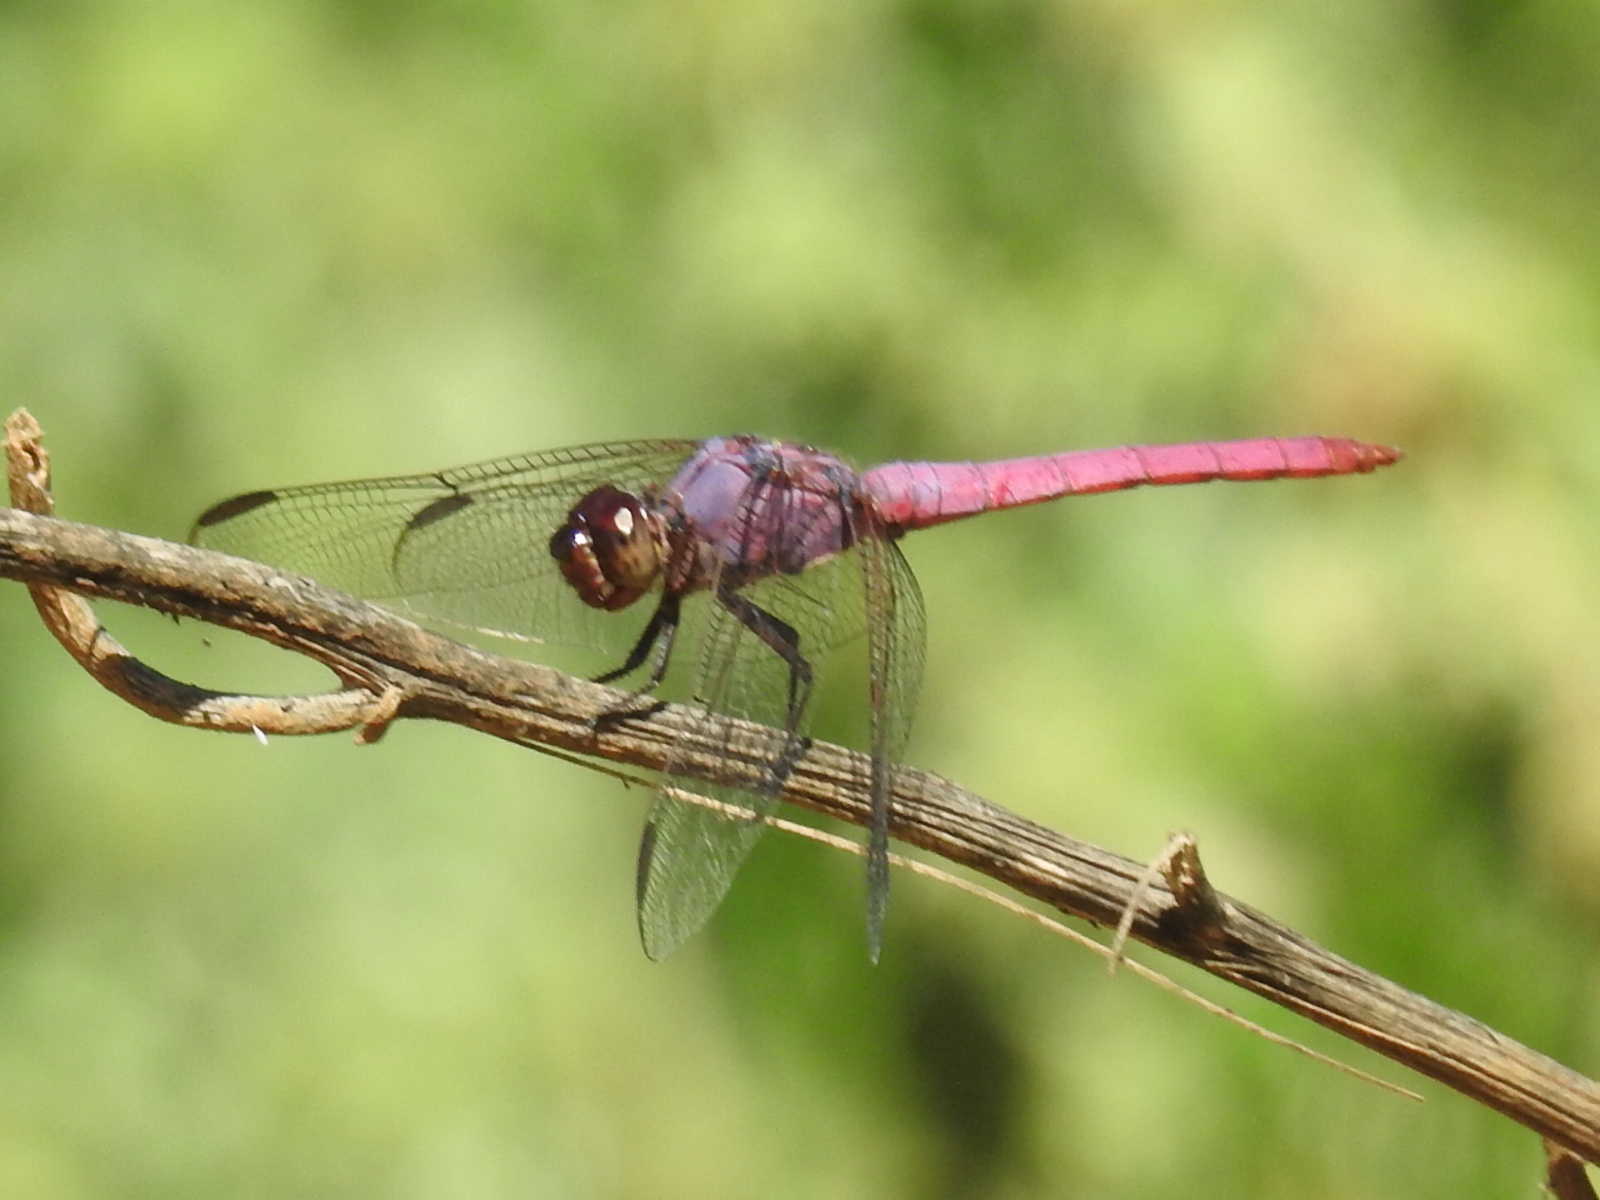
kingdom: Animalia
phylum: Arthropoda
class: Insecta
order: Odonata
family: Libellulidae
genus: Orthemis
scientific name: Orthemis ferruginea
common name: Roseate skimmer
